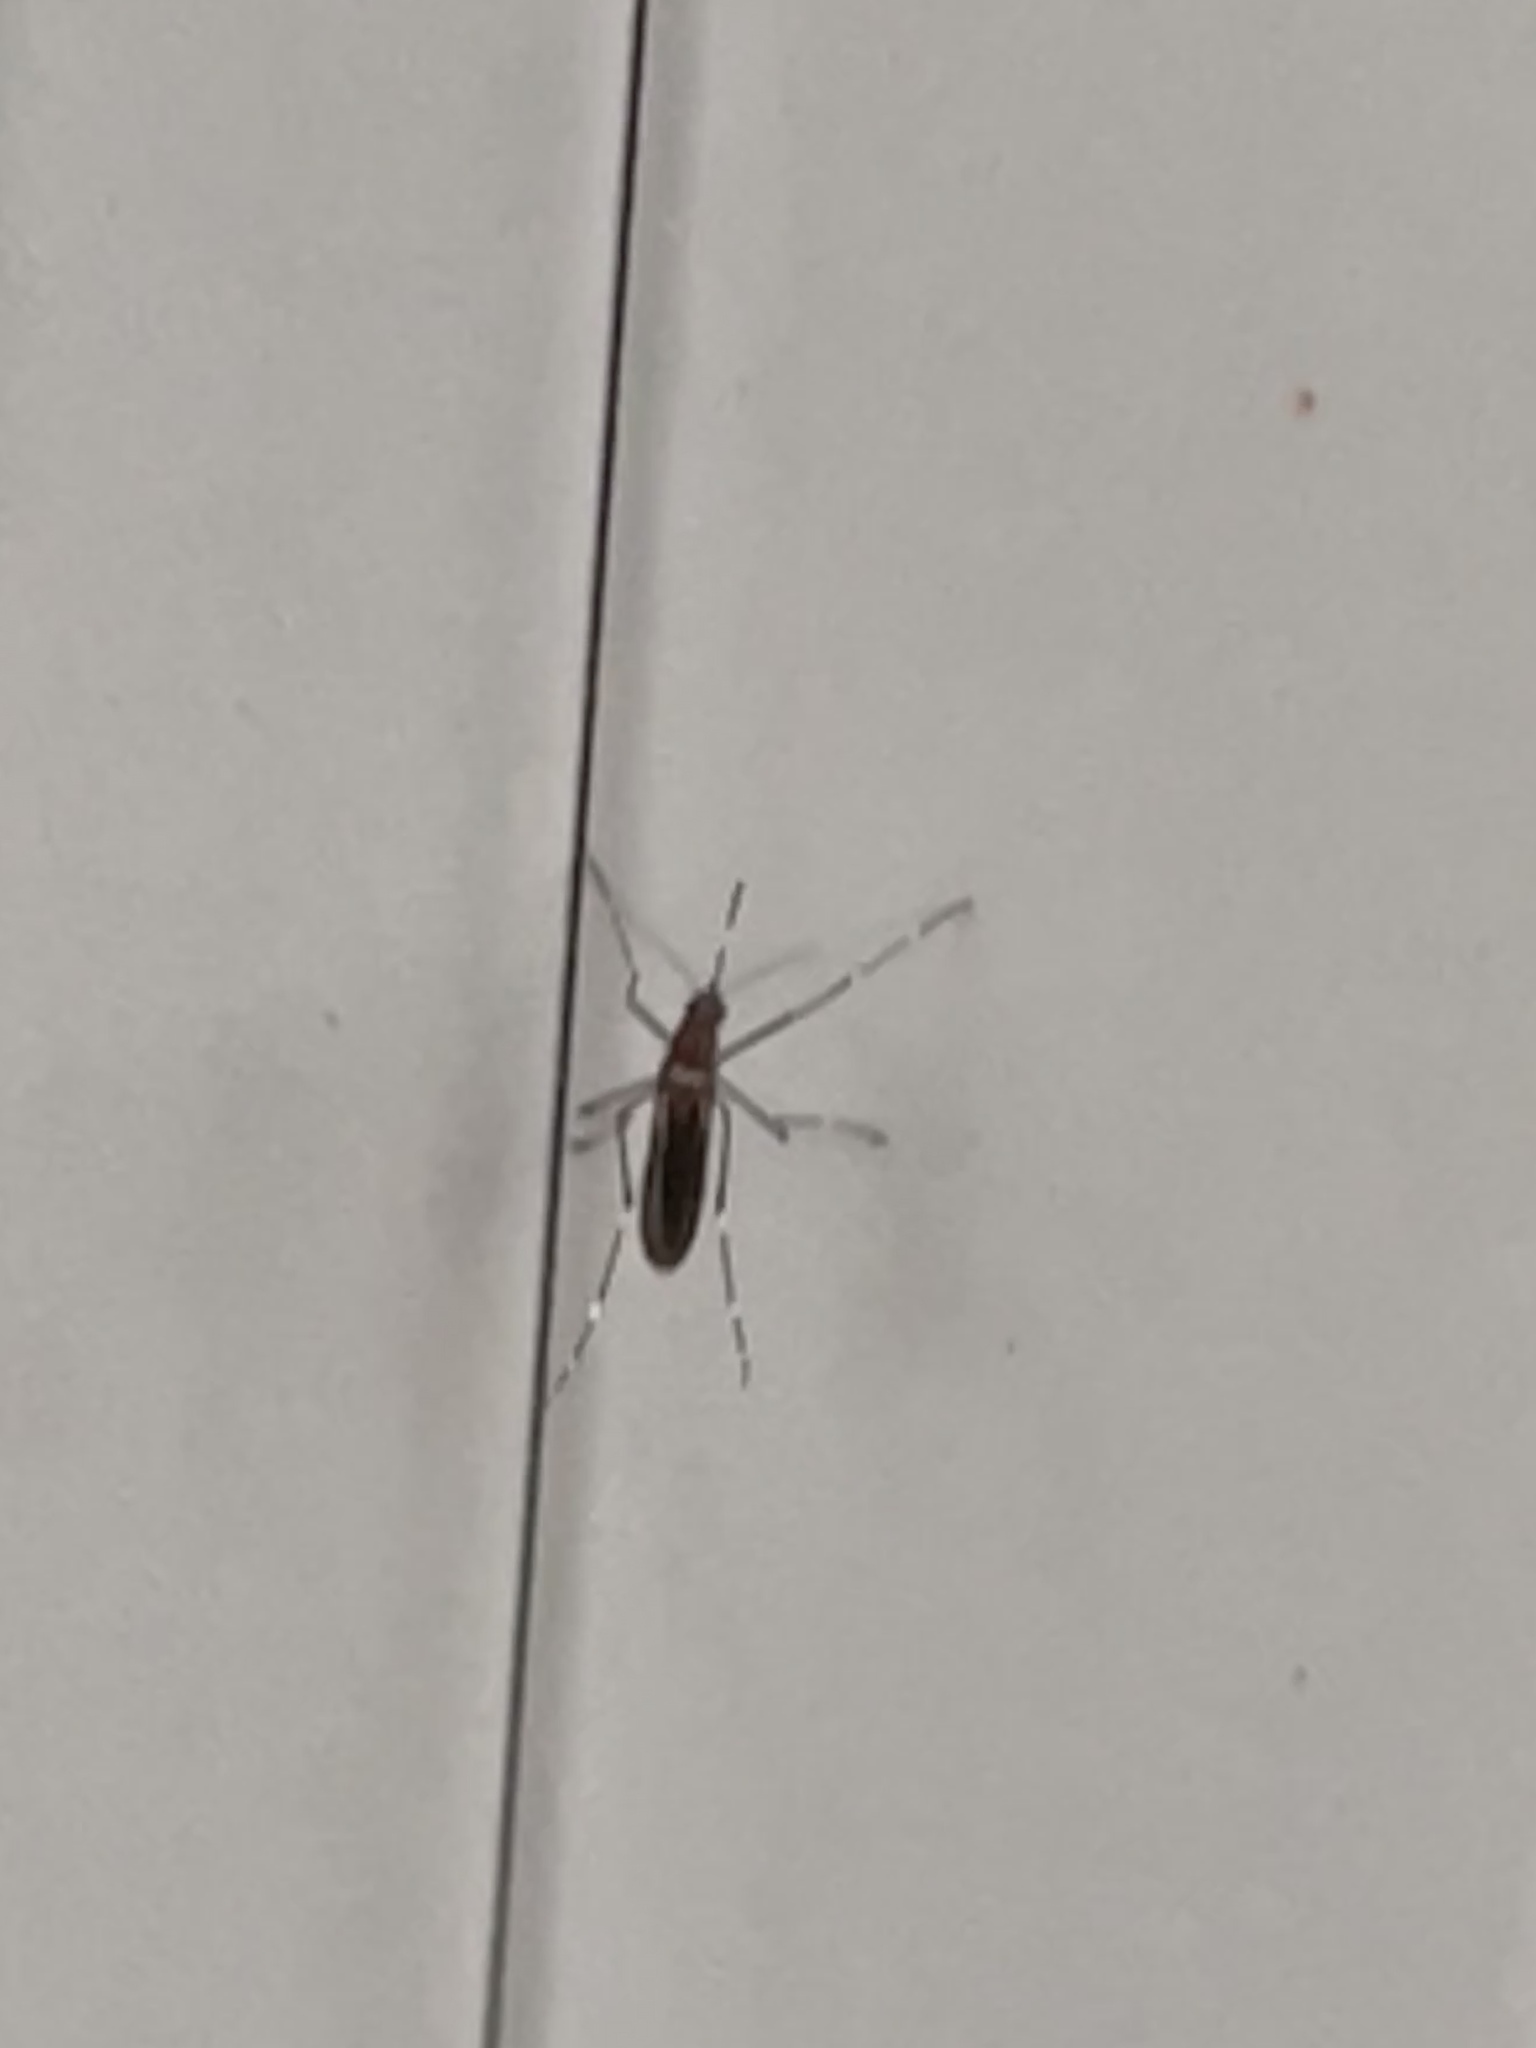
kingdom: Animalia
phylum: Arthropoda
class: Insecta
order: Diptera
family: Culicidae
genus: Aedes
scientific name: Aedes notoscriptus
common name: Australian backyard mosquito
